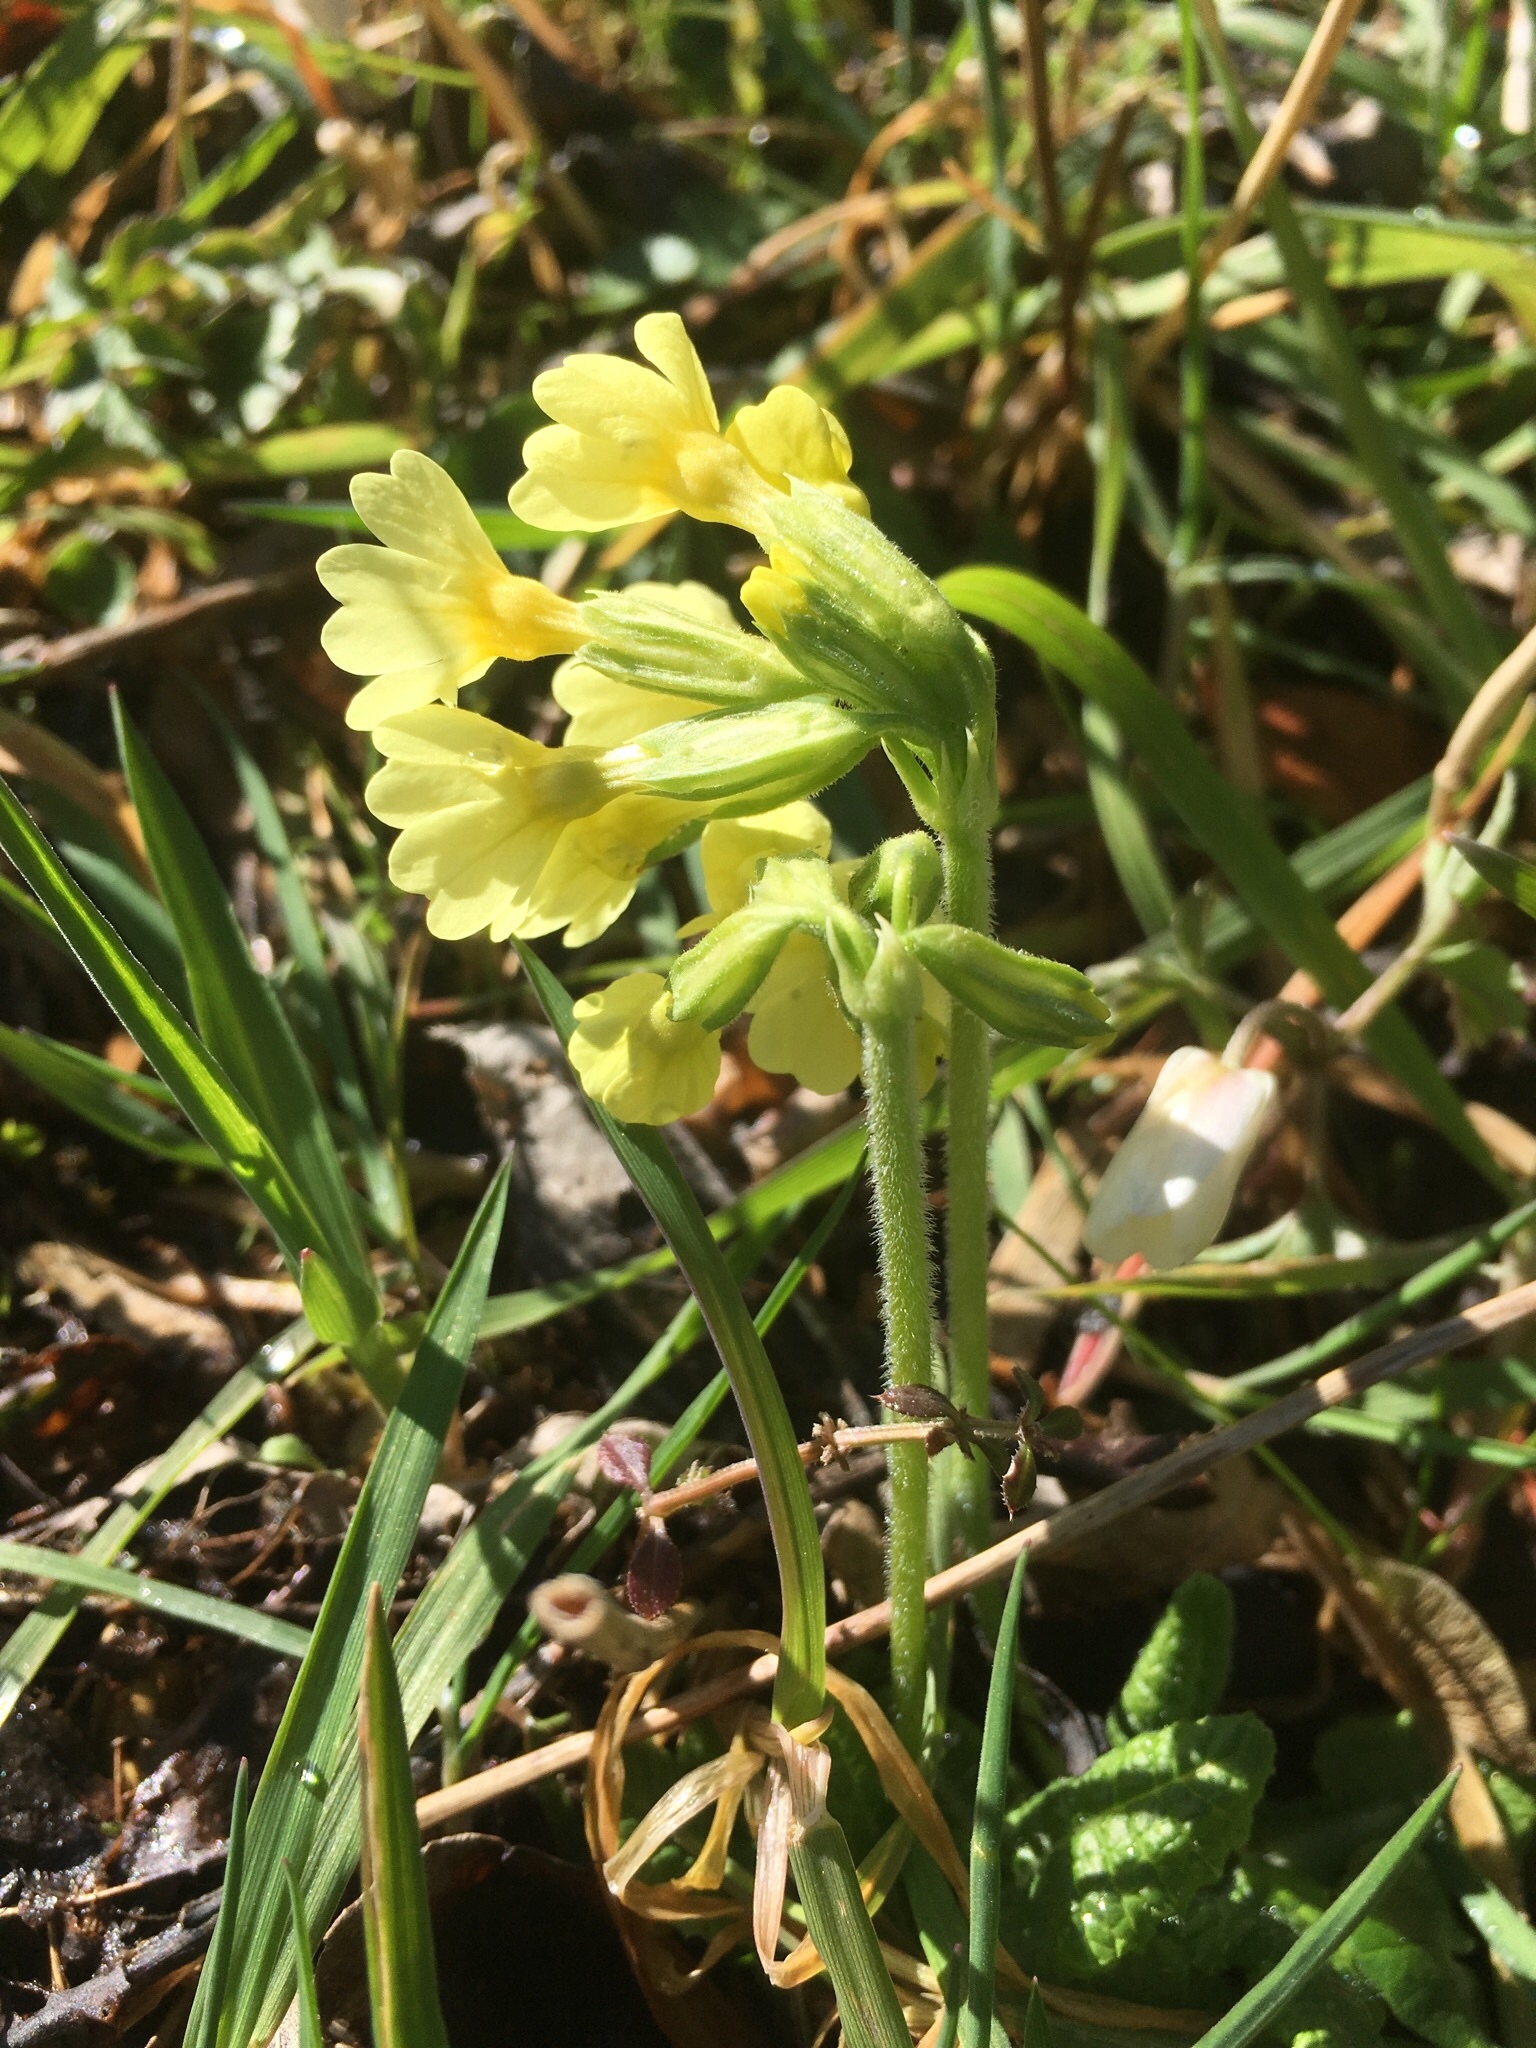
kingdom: Plantae
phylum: Tracheophyta
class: Magnoliopsida
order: Ericales
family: Primulaceae
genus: Primula
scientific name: Primula elatior
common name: Oxlip
